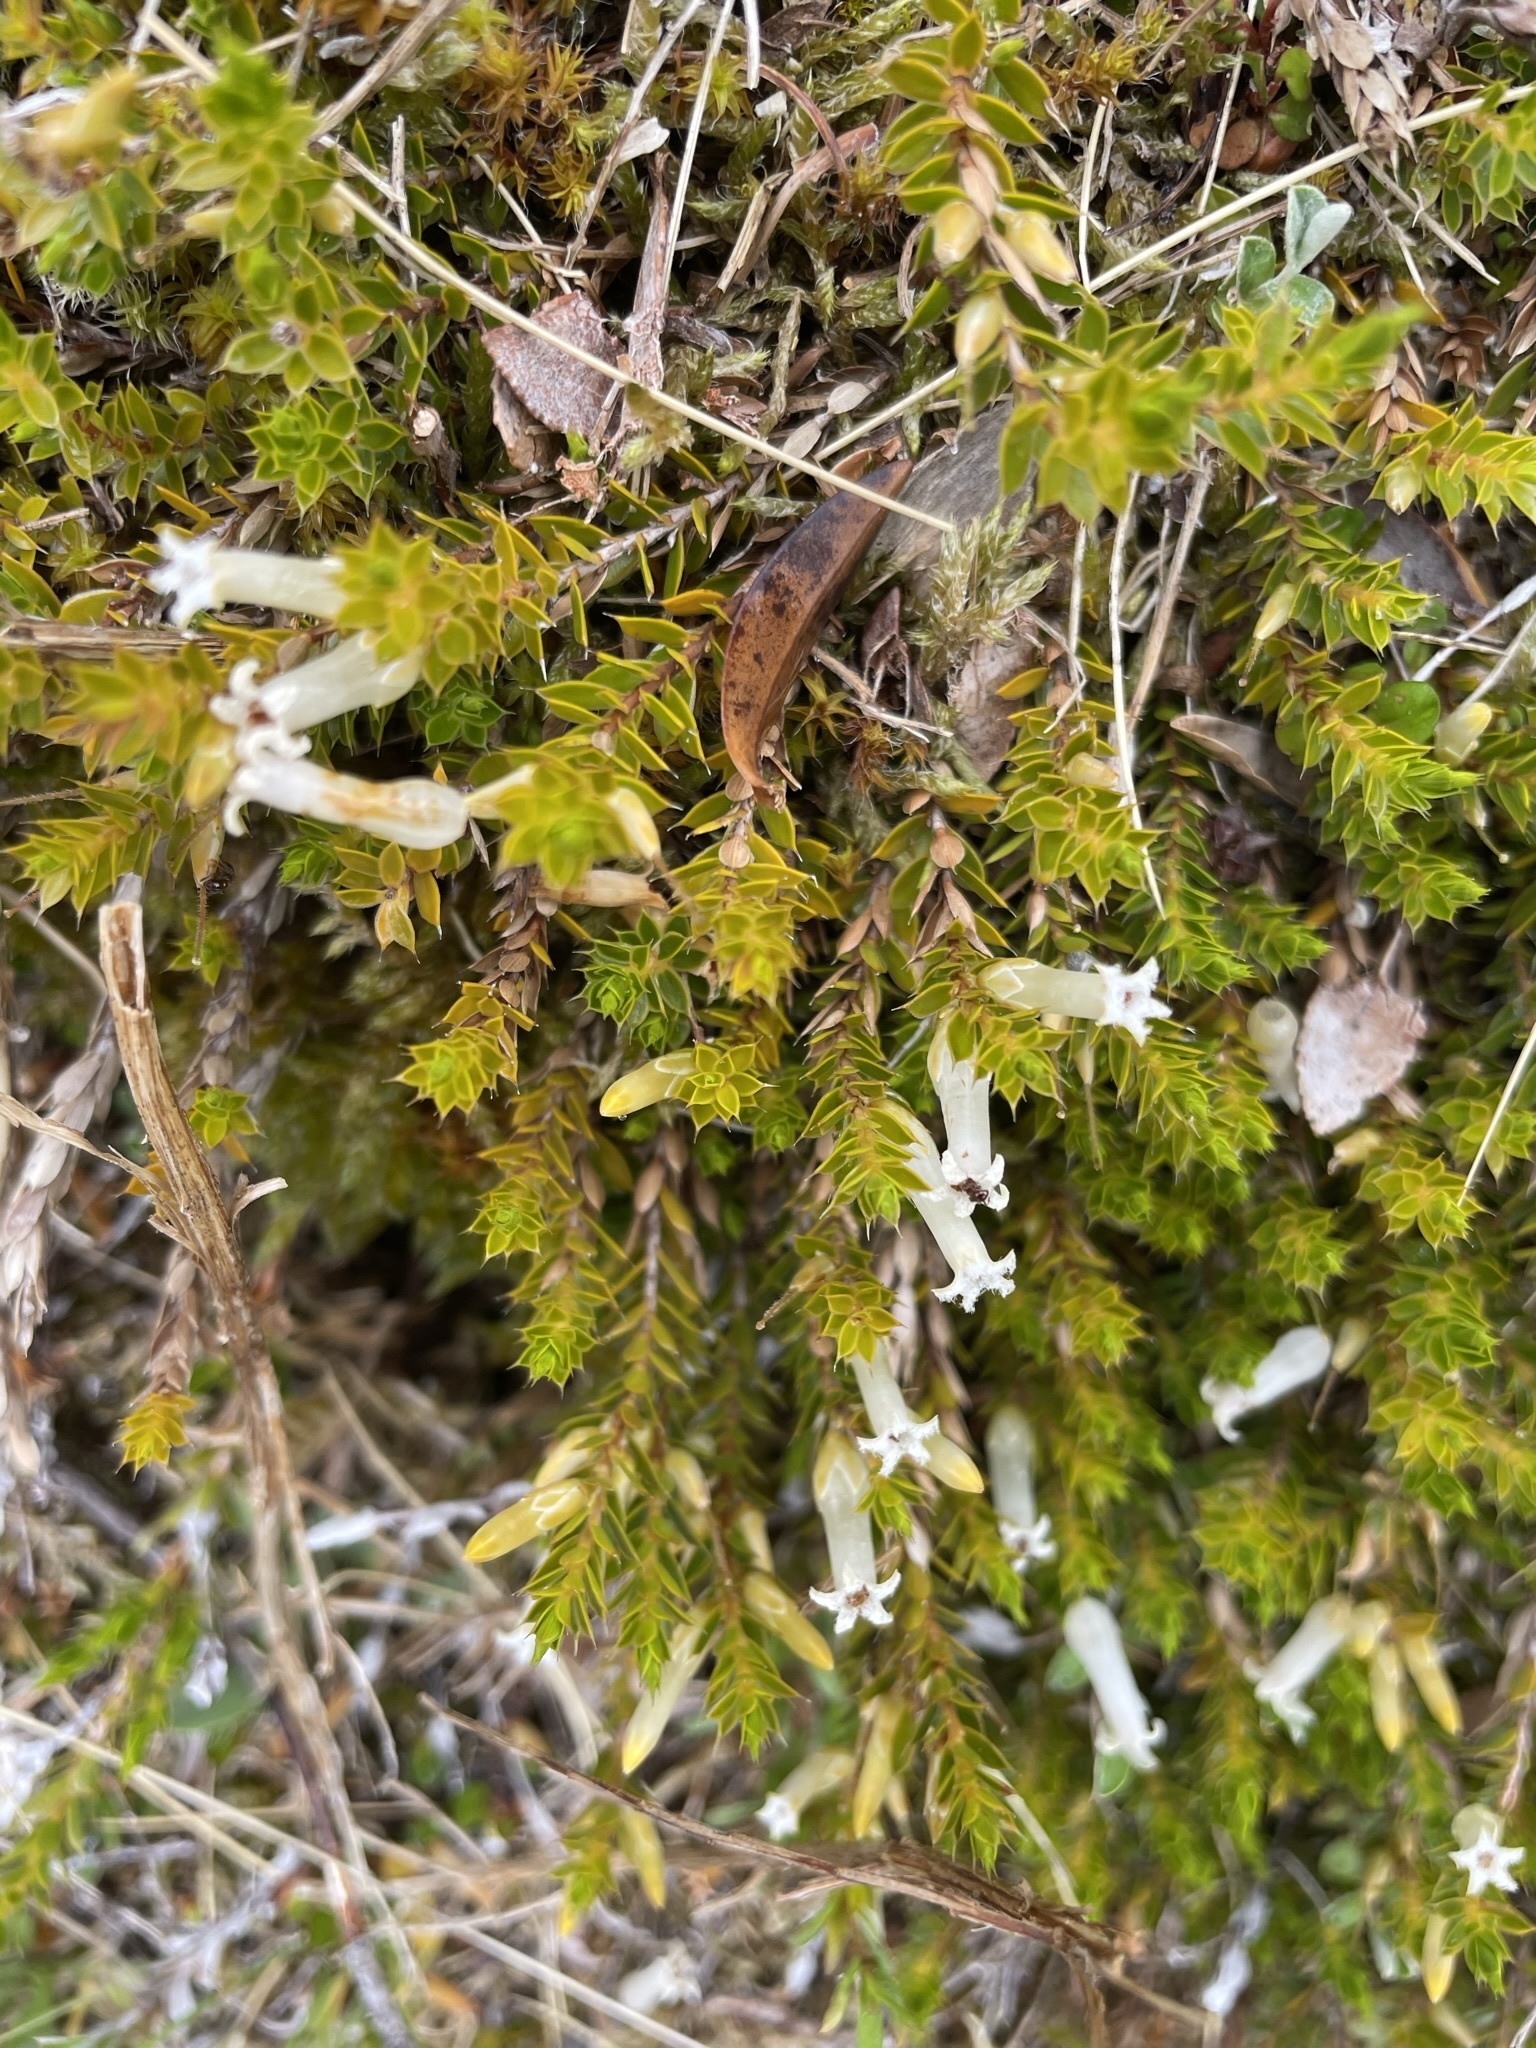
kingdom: Plantae
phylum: Tracheophyta
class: Magnoliopsida
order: Ericales
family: Ericaceae
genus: Styphelia
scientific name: Styphelia nesophila
